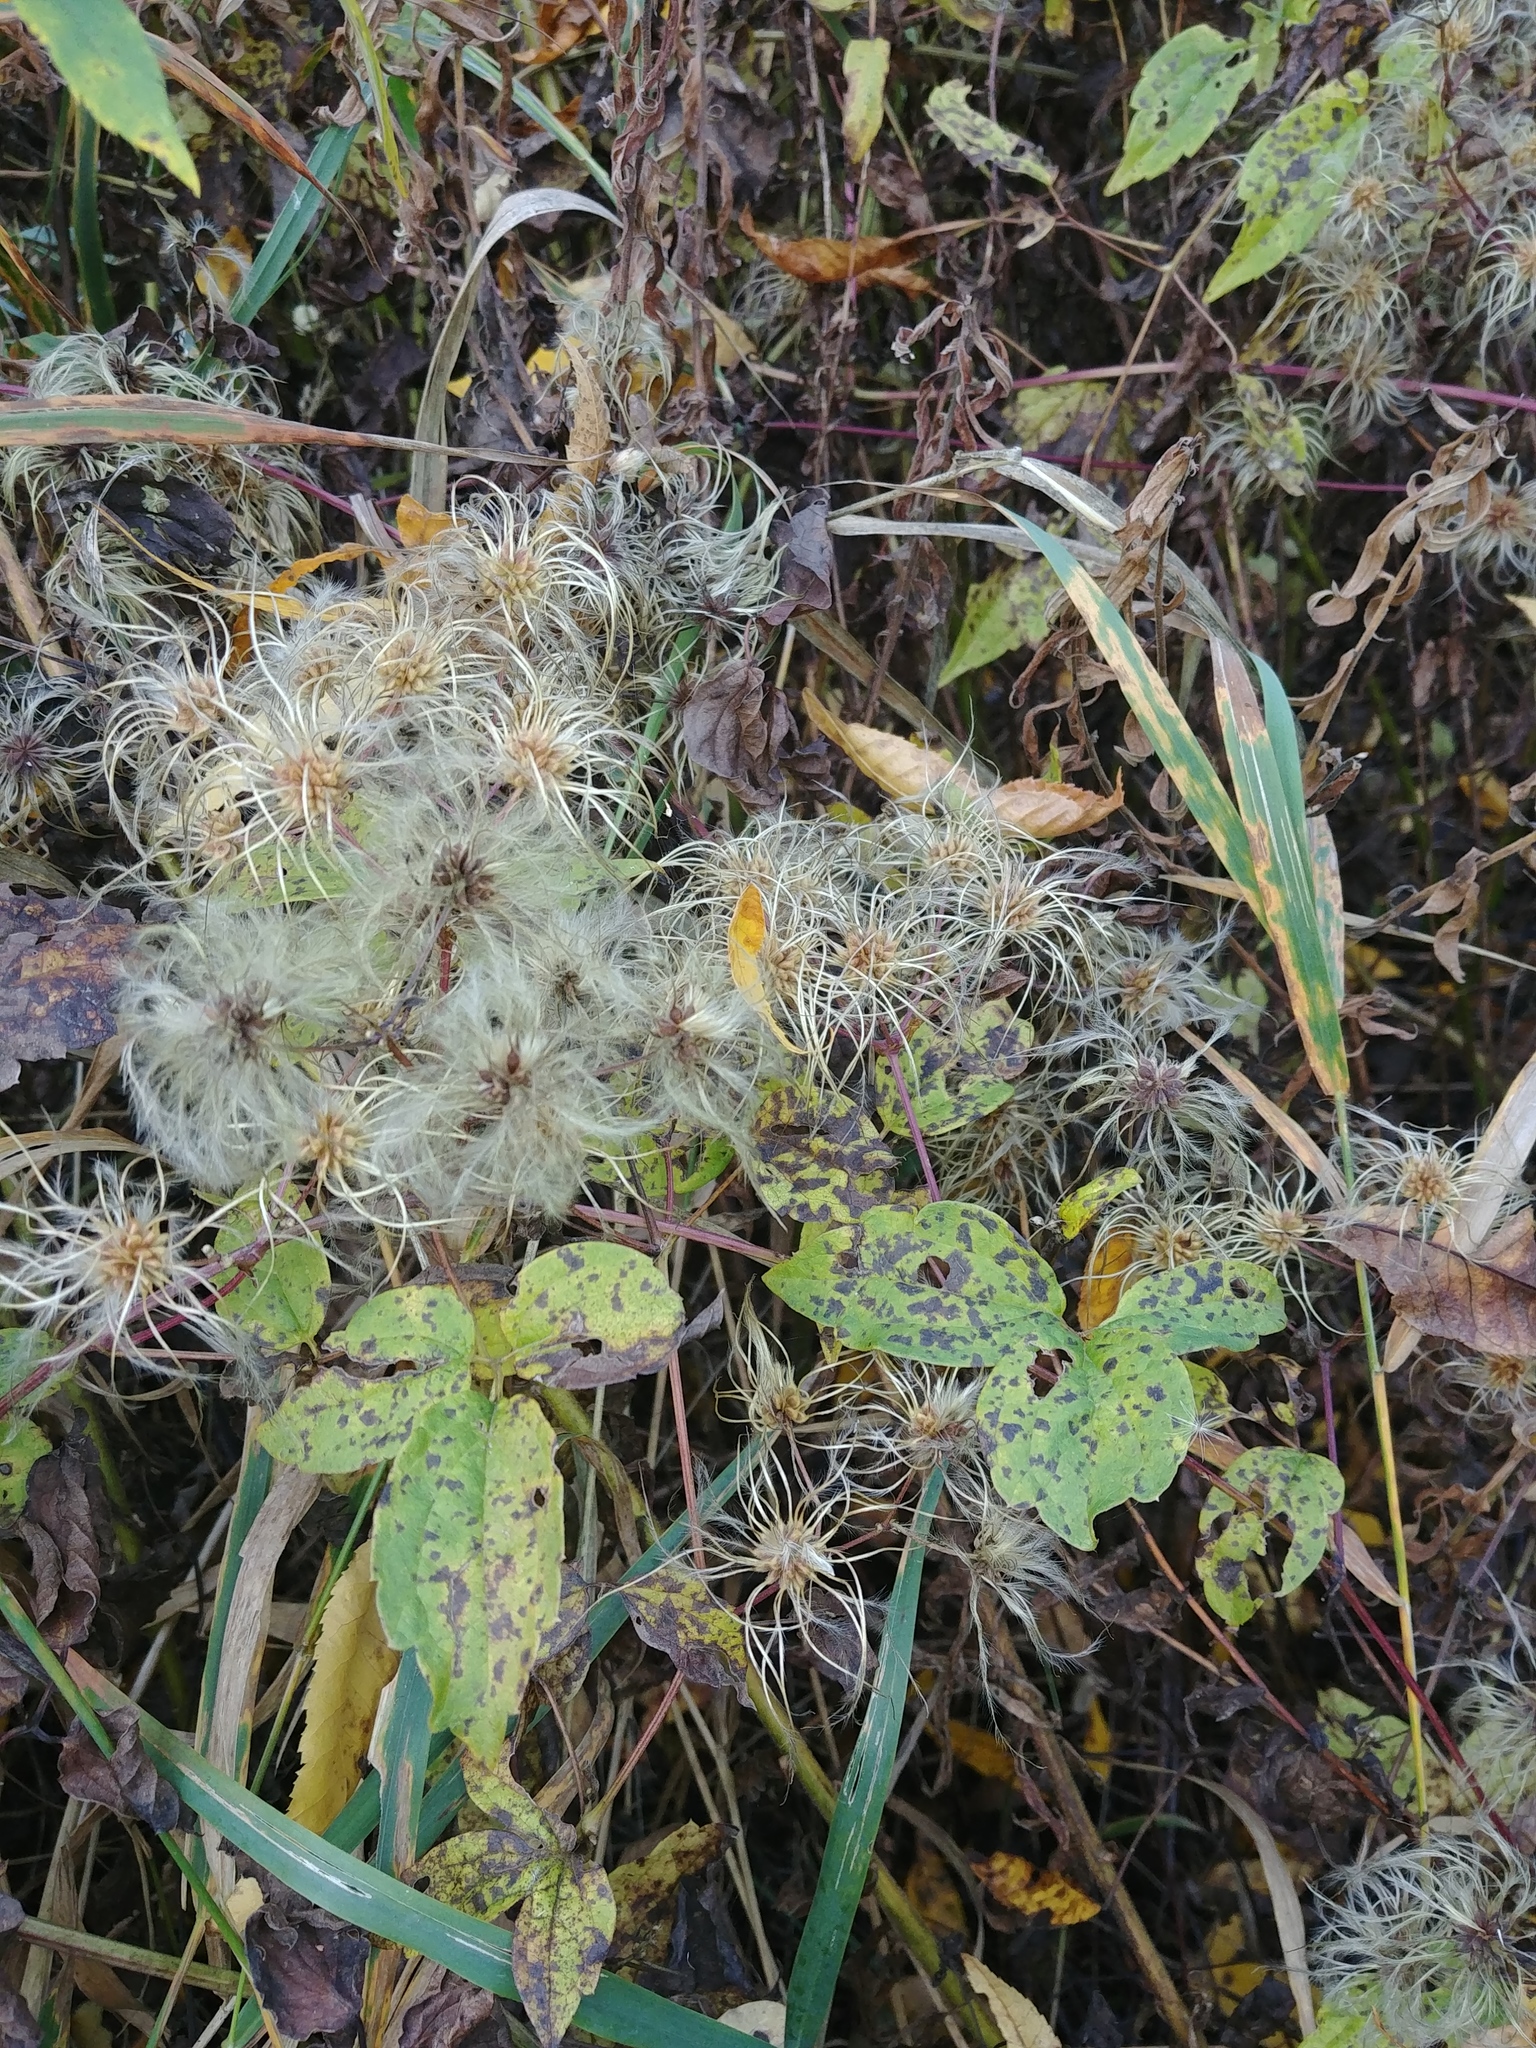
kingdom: Plantae
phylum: Tracheophyta
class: Magnoliopsida
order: Ranunculales
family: Ranunculaceae
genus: Clematis
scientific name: Clematis virginiana
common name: Virgin's-bower
